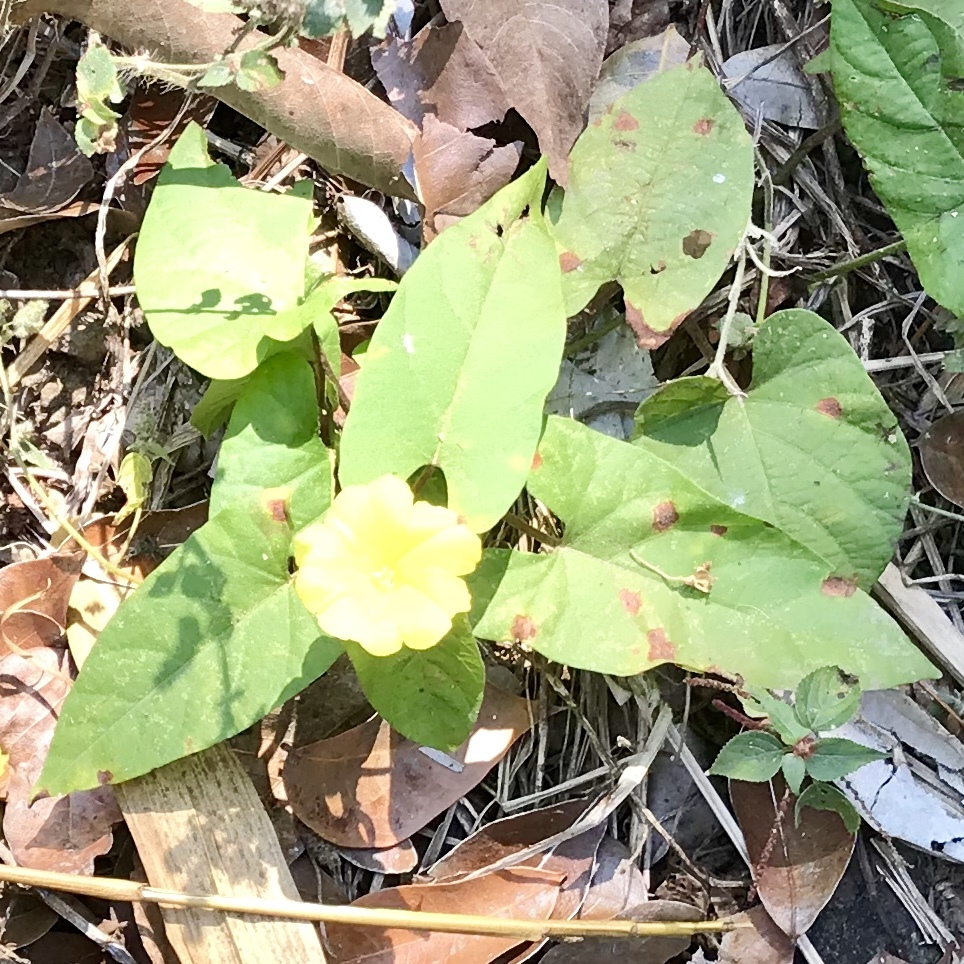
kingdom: Plantae
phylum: Tracheophyta
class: Magnoliopsida
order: Solanales
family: Convolvulaceae
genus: Camonea
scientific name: Camonea umbellata
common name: Hogvine
